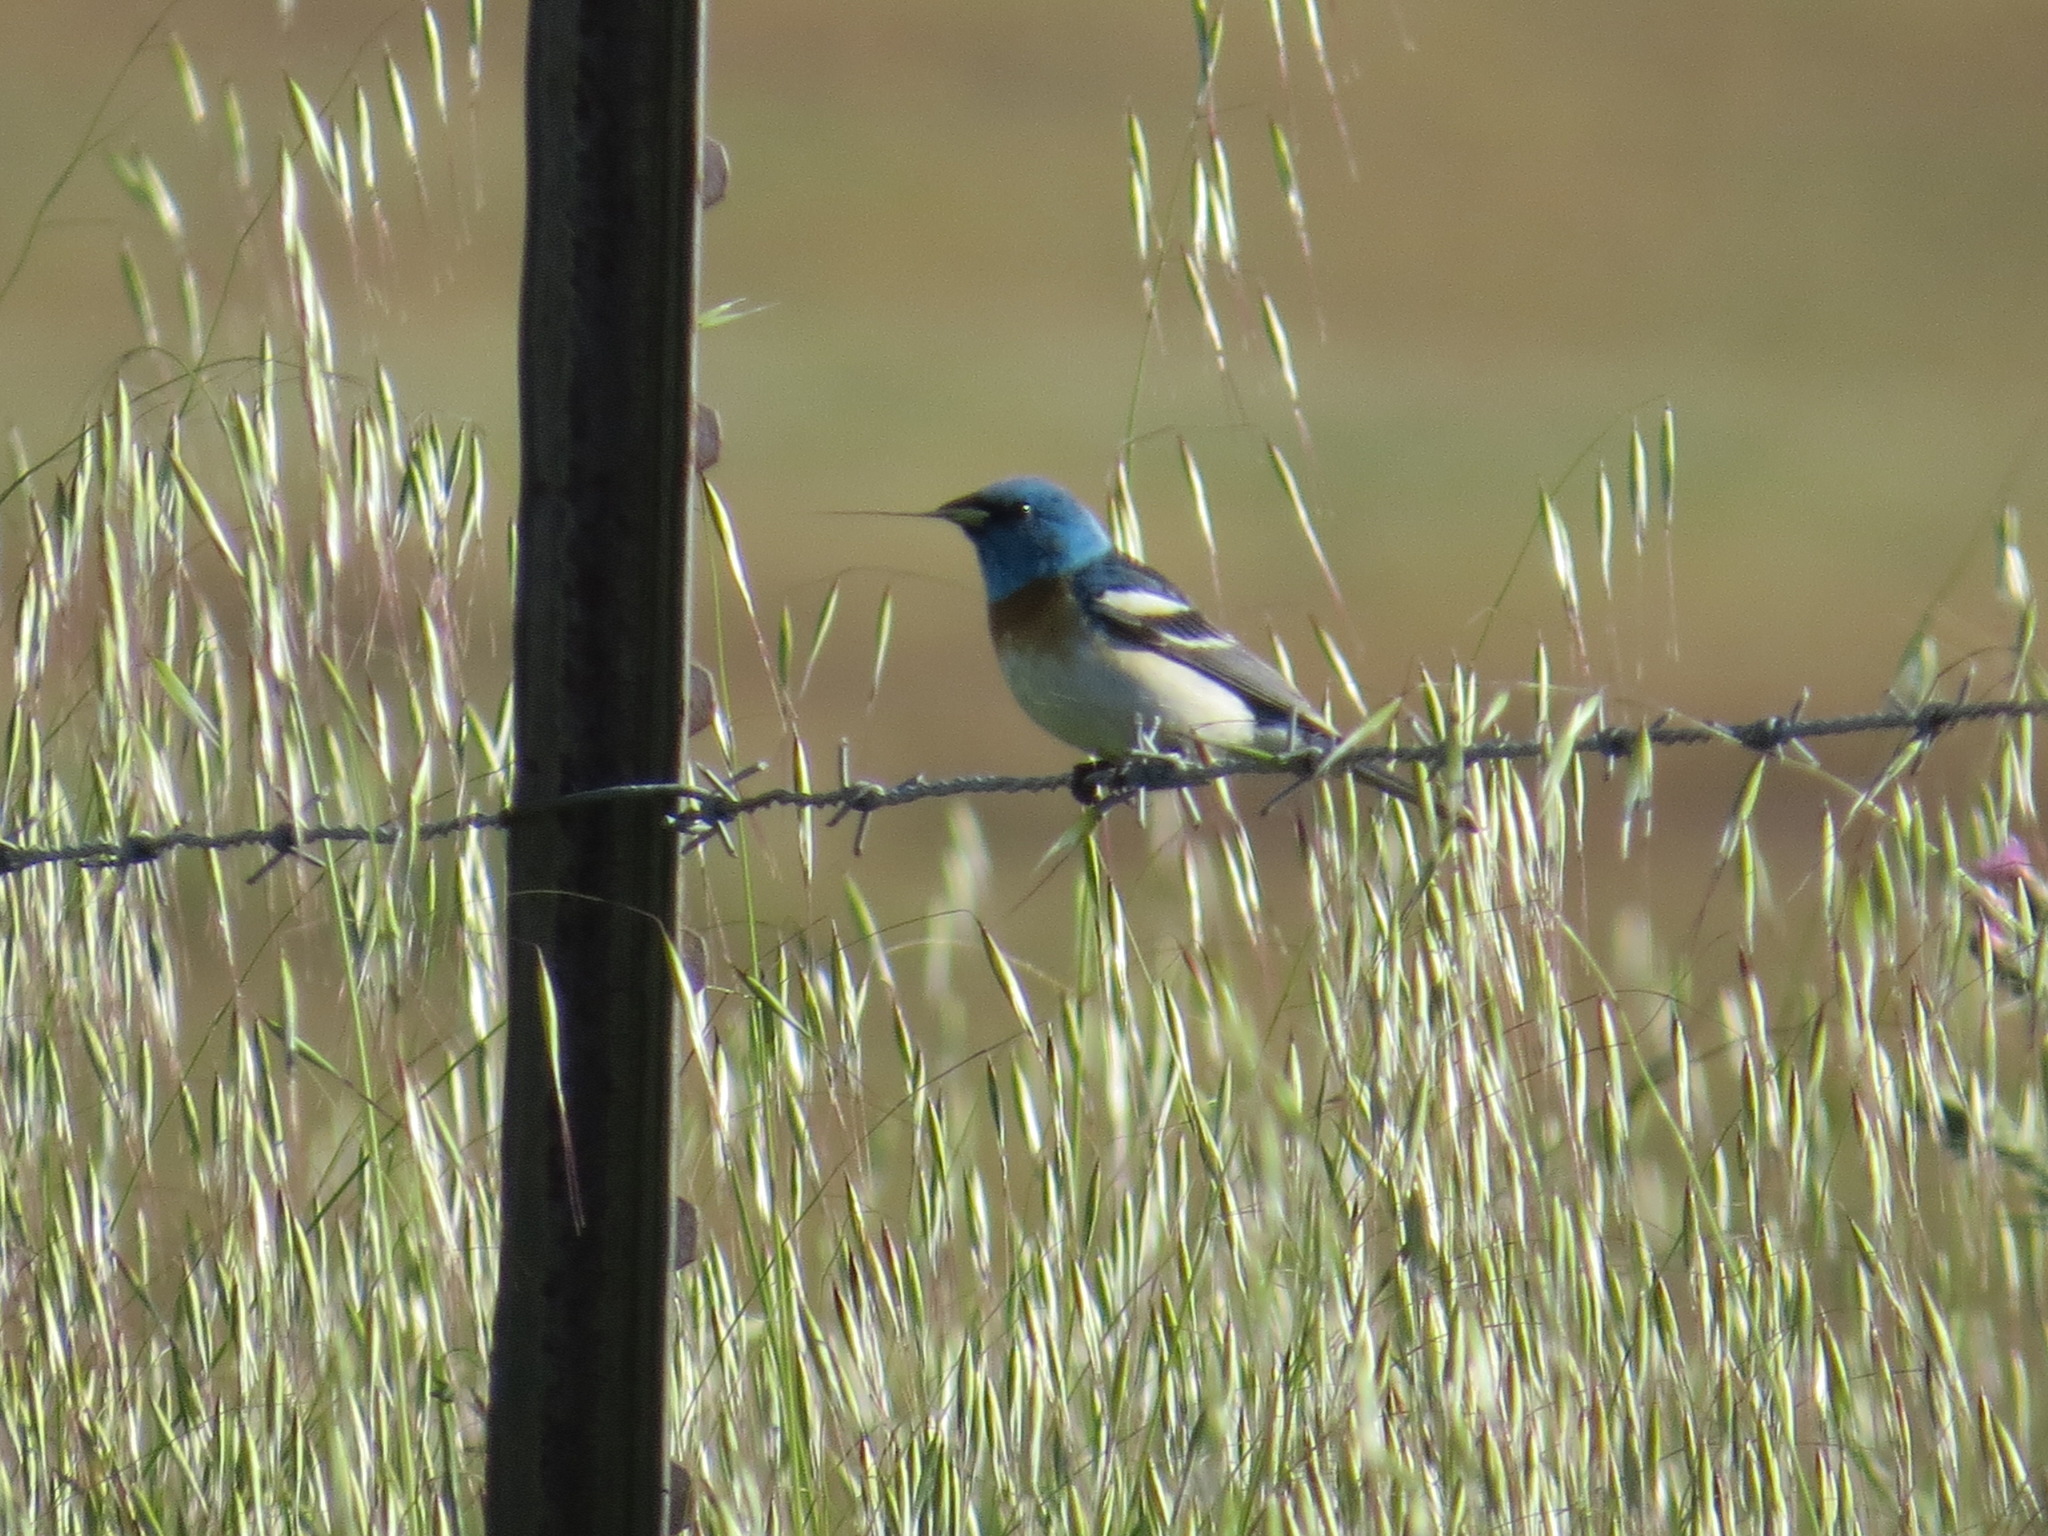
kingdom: Animalia
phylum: Chordata
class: Aves
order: Passeriformes
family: Cardinalidae
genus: Passerina
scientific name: Passerina amoena
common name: Lazuli bunting
